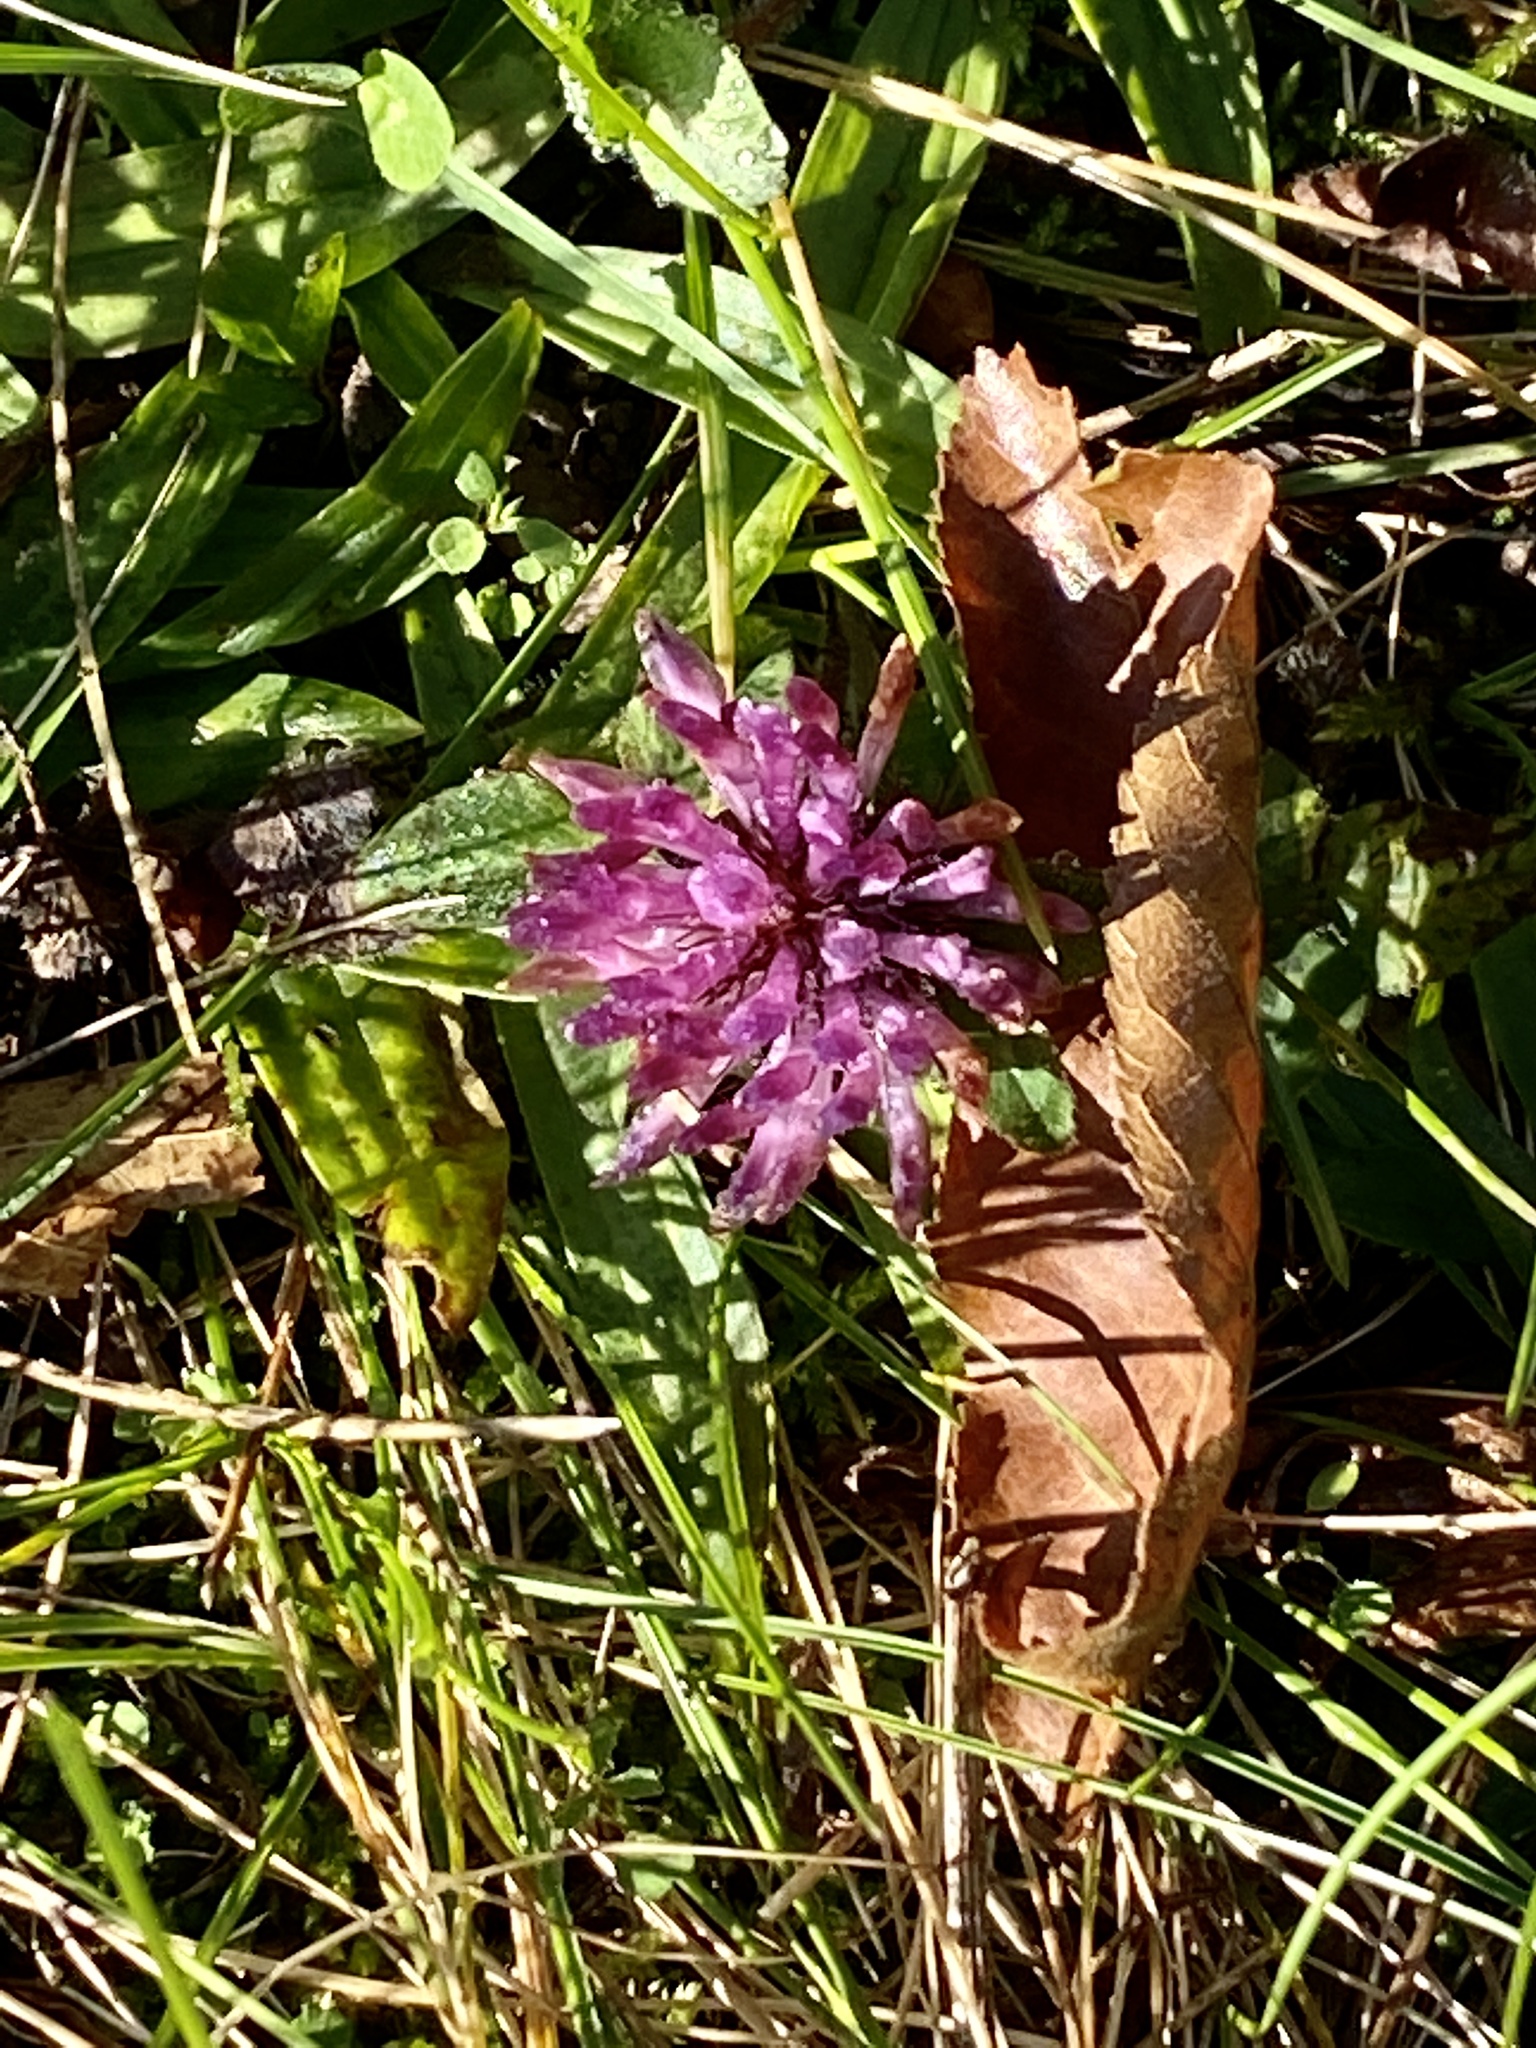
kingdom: Plantae
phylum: Tracheophyta
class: Magnoliopsida
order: Fabales
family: Fabaceae
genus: Trifolium
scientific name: Trifolium pratense
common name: Red clover
